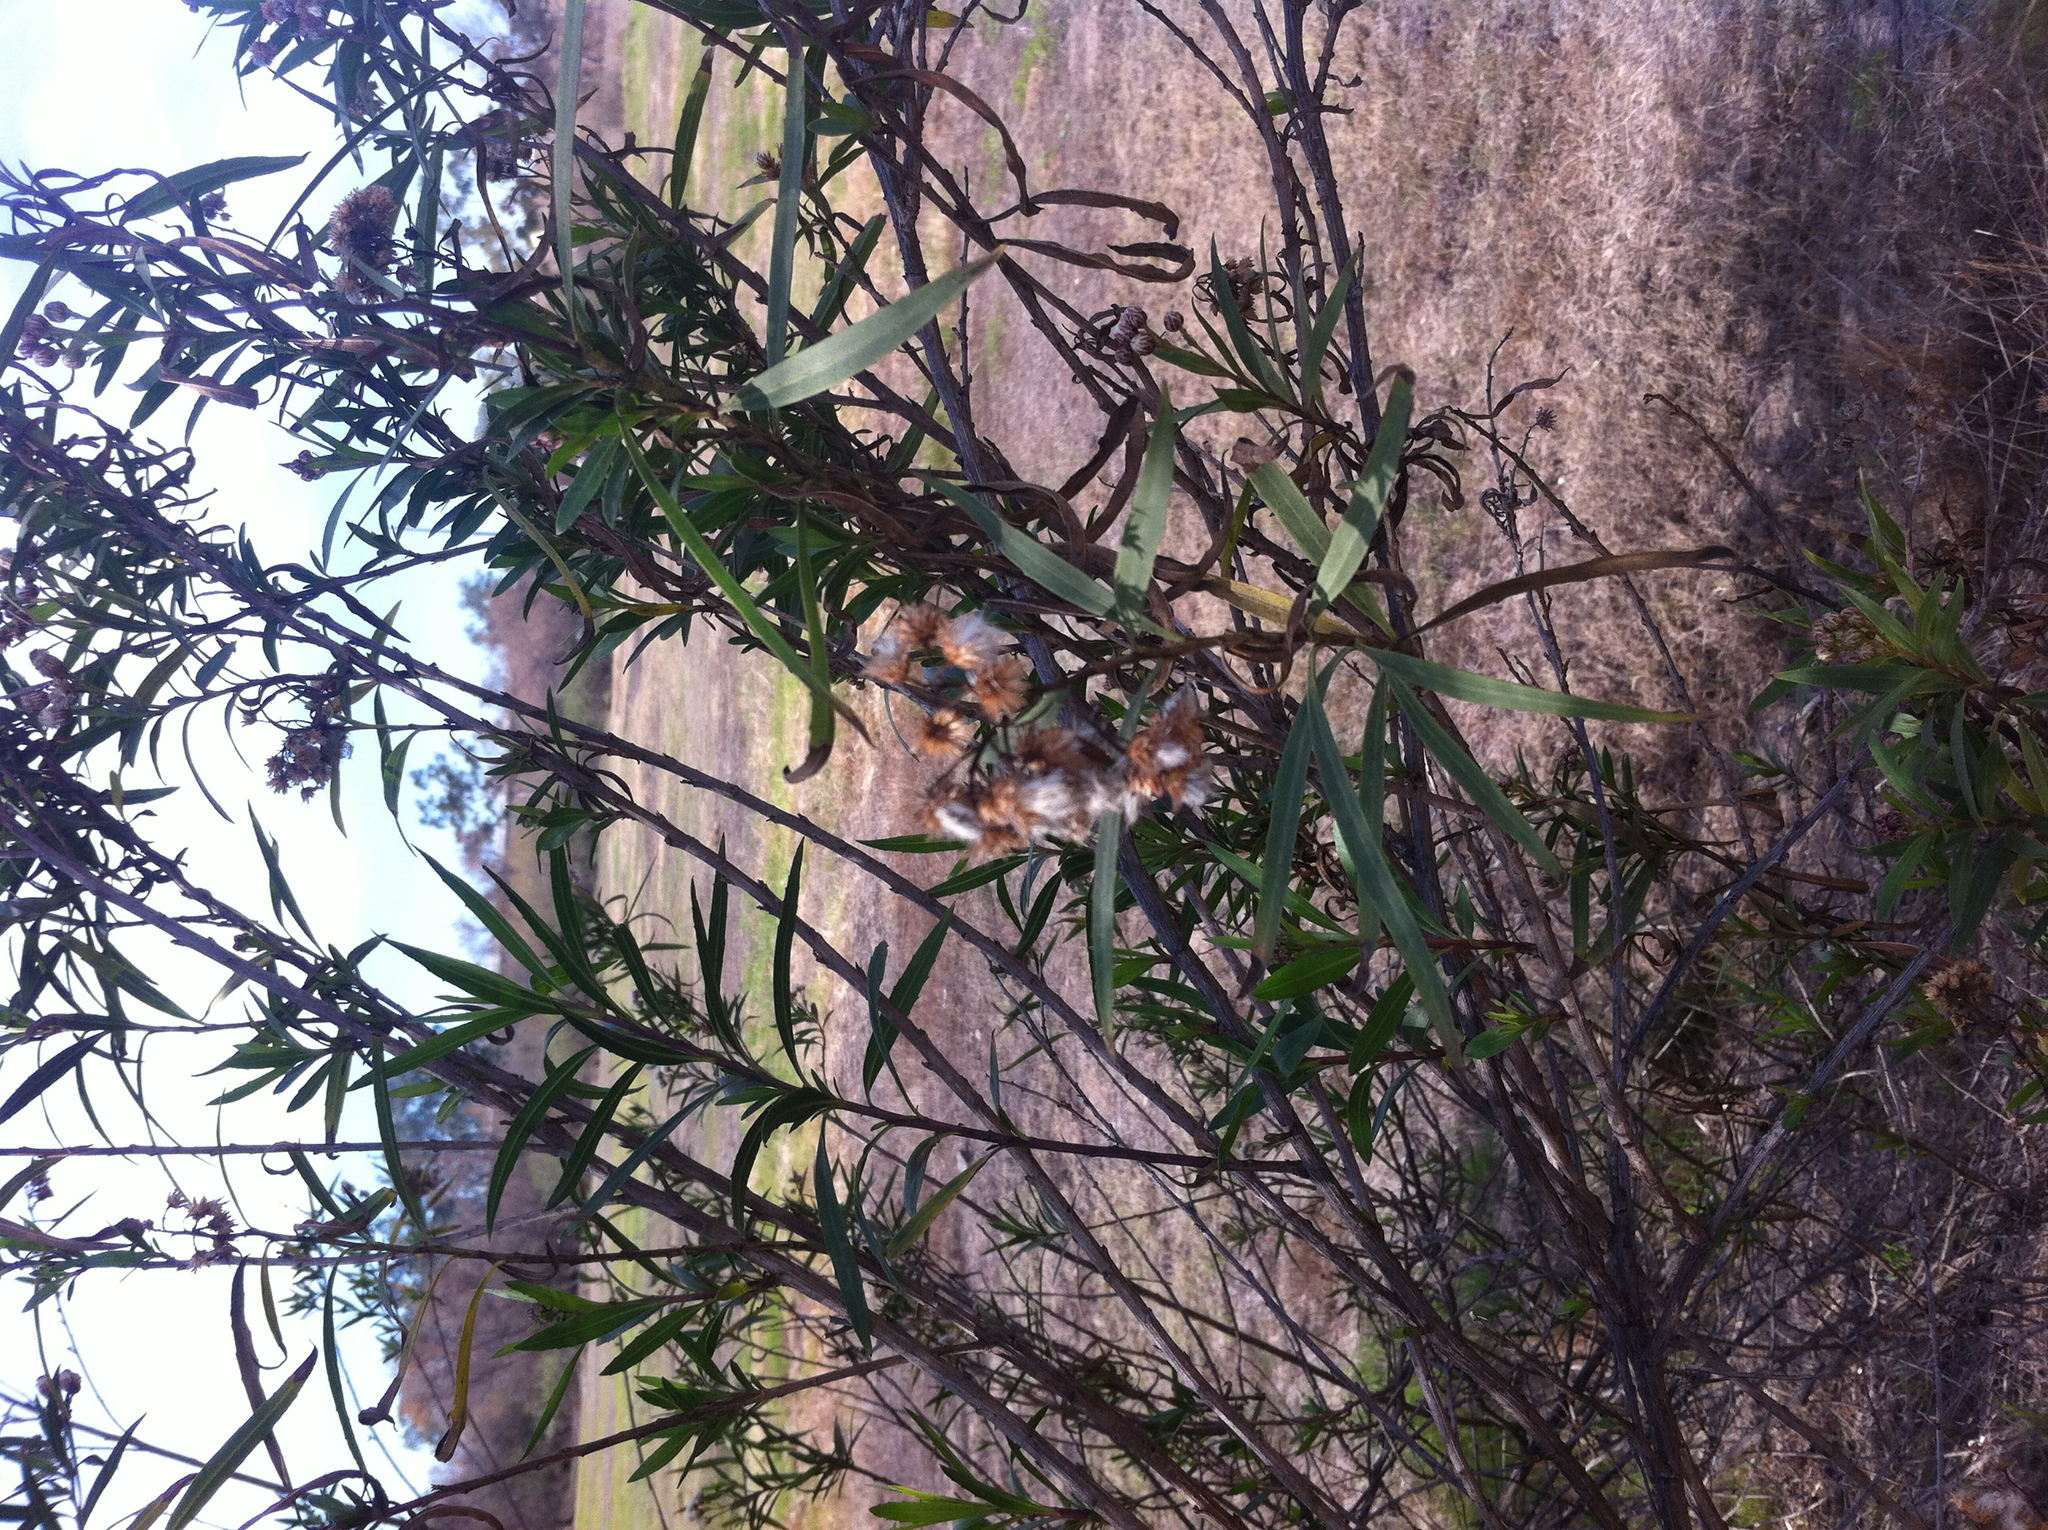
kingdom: Plantae
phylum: Tracheophyta
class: Magnoliopsida
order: Asterales
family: Asteraceae
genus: Baccharis
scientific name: Baccharis salicifolia
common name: Sticky baccharis
